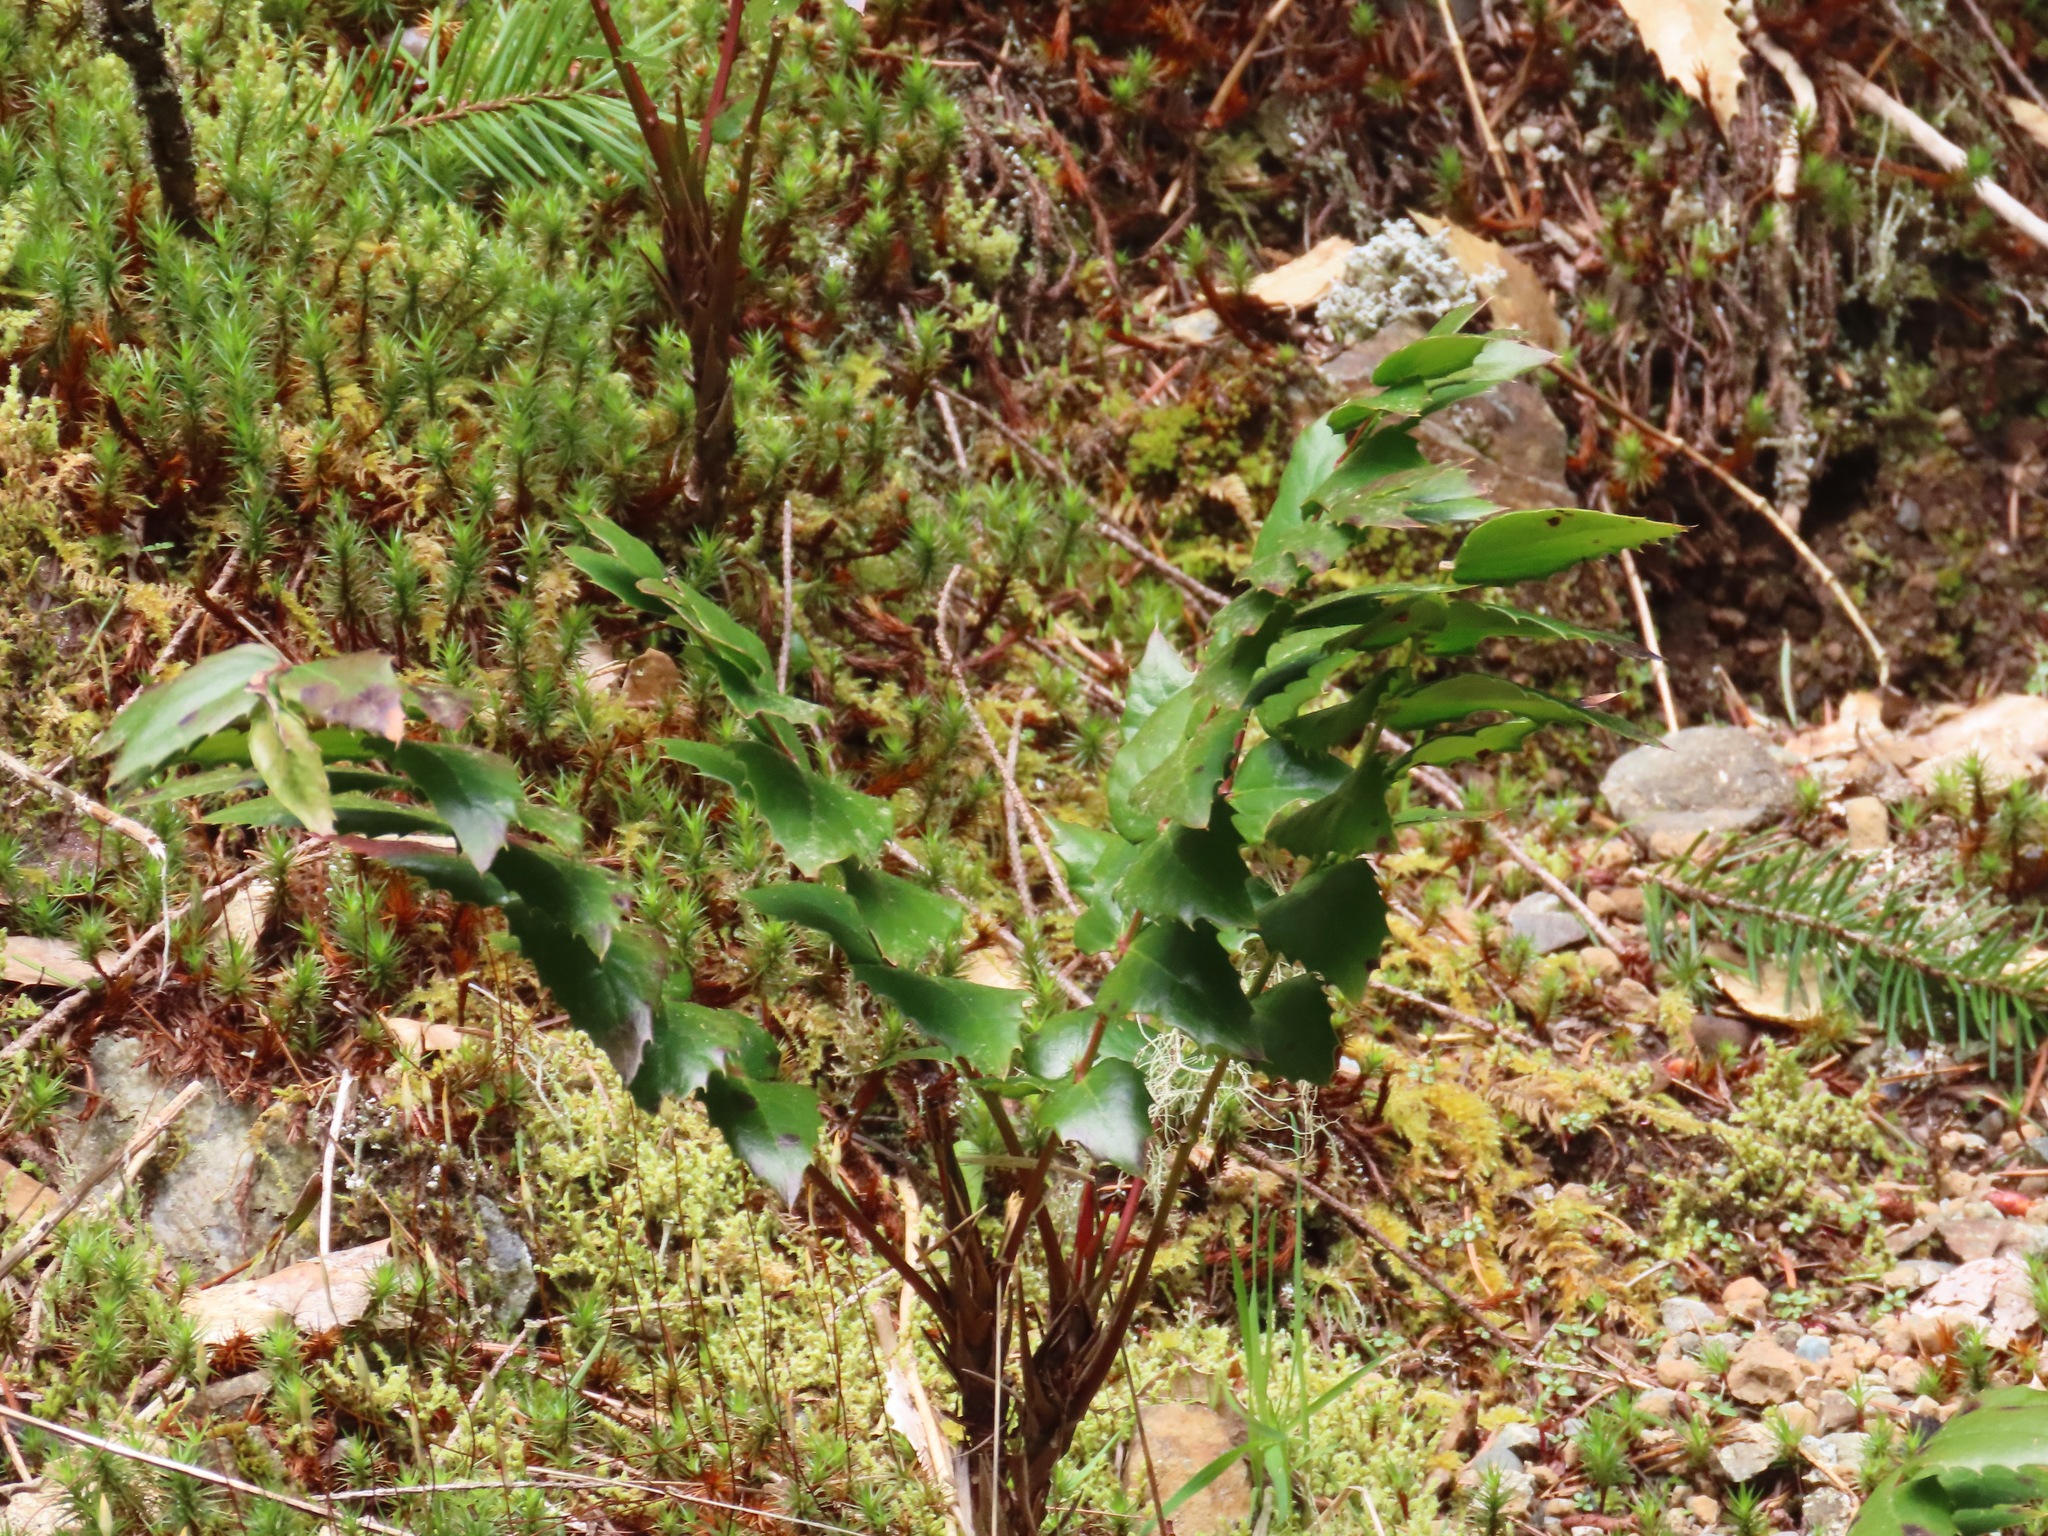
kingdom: Plantae
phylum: Tracheophyta
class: Magnoliopsida
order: Ranunculales
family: Berberidaceae
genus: Mahonia
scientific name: Mahonia nervosa
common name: Cascade oregon-grape
